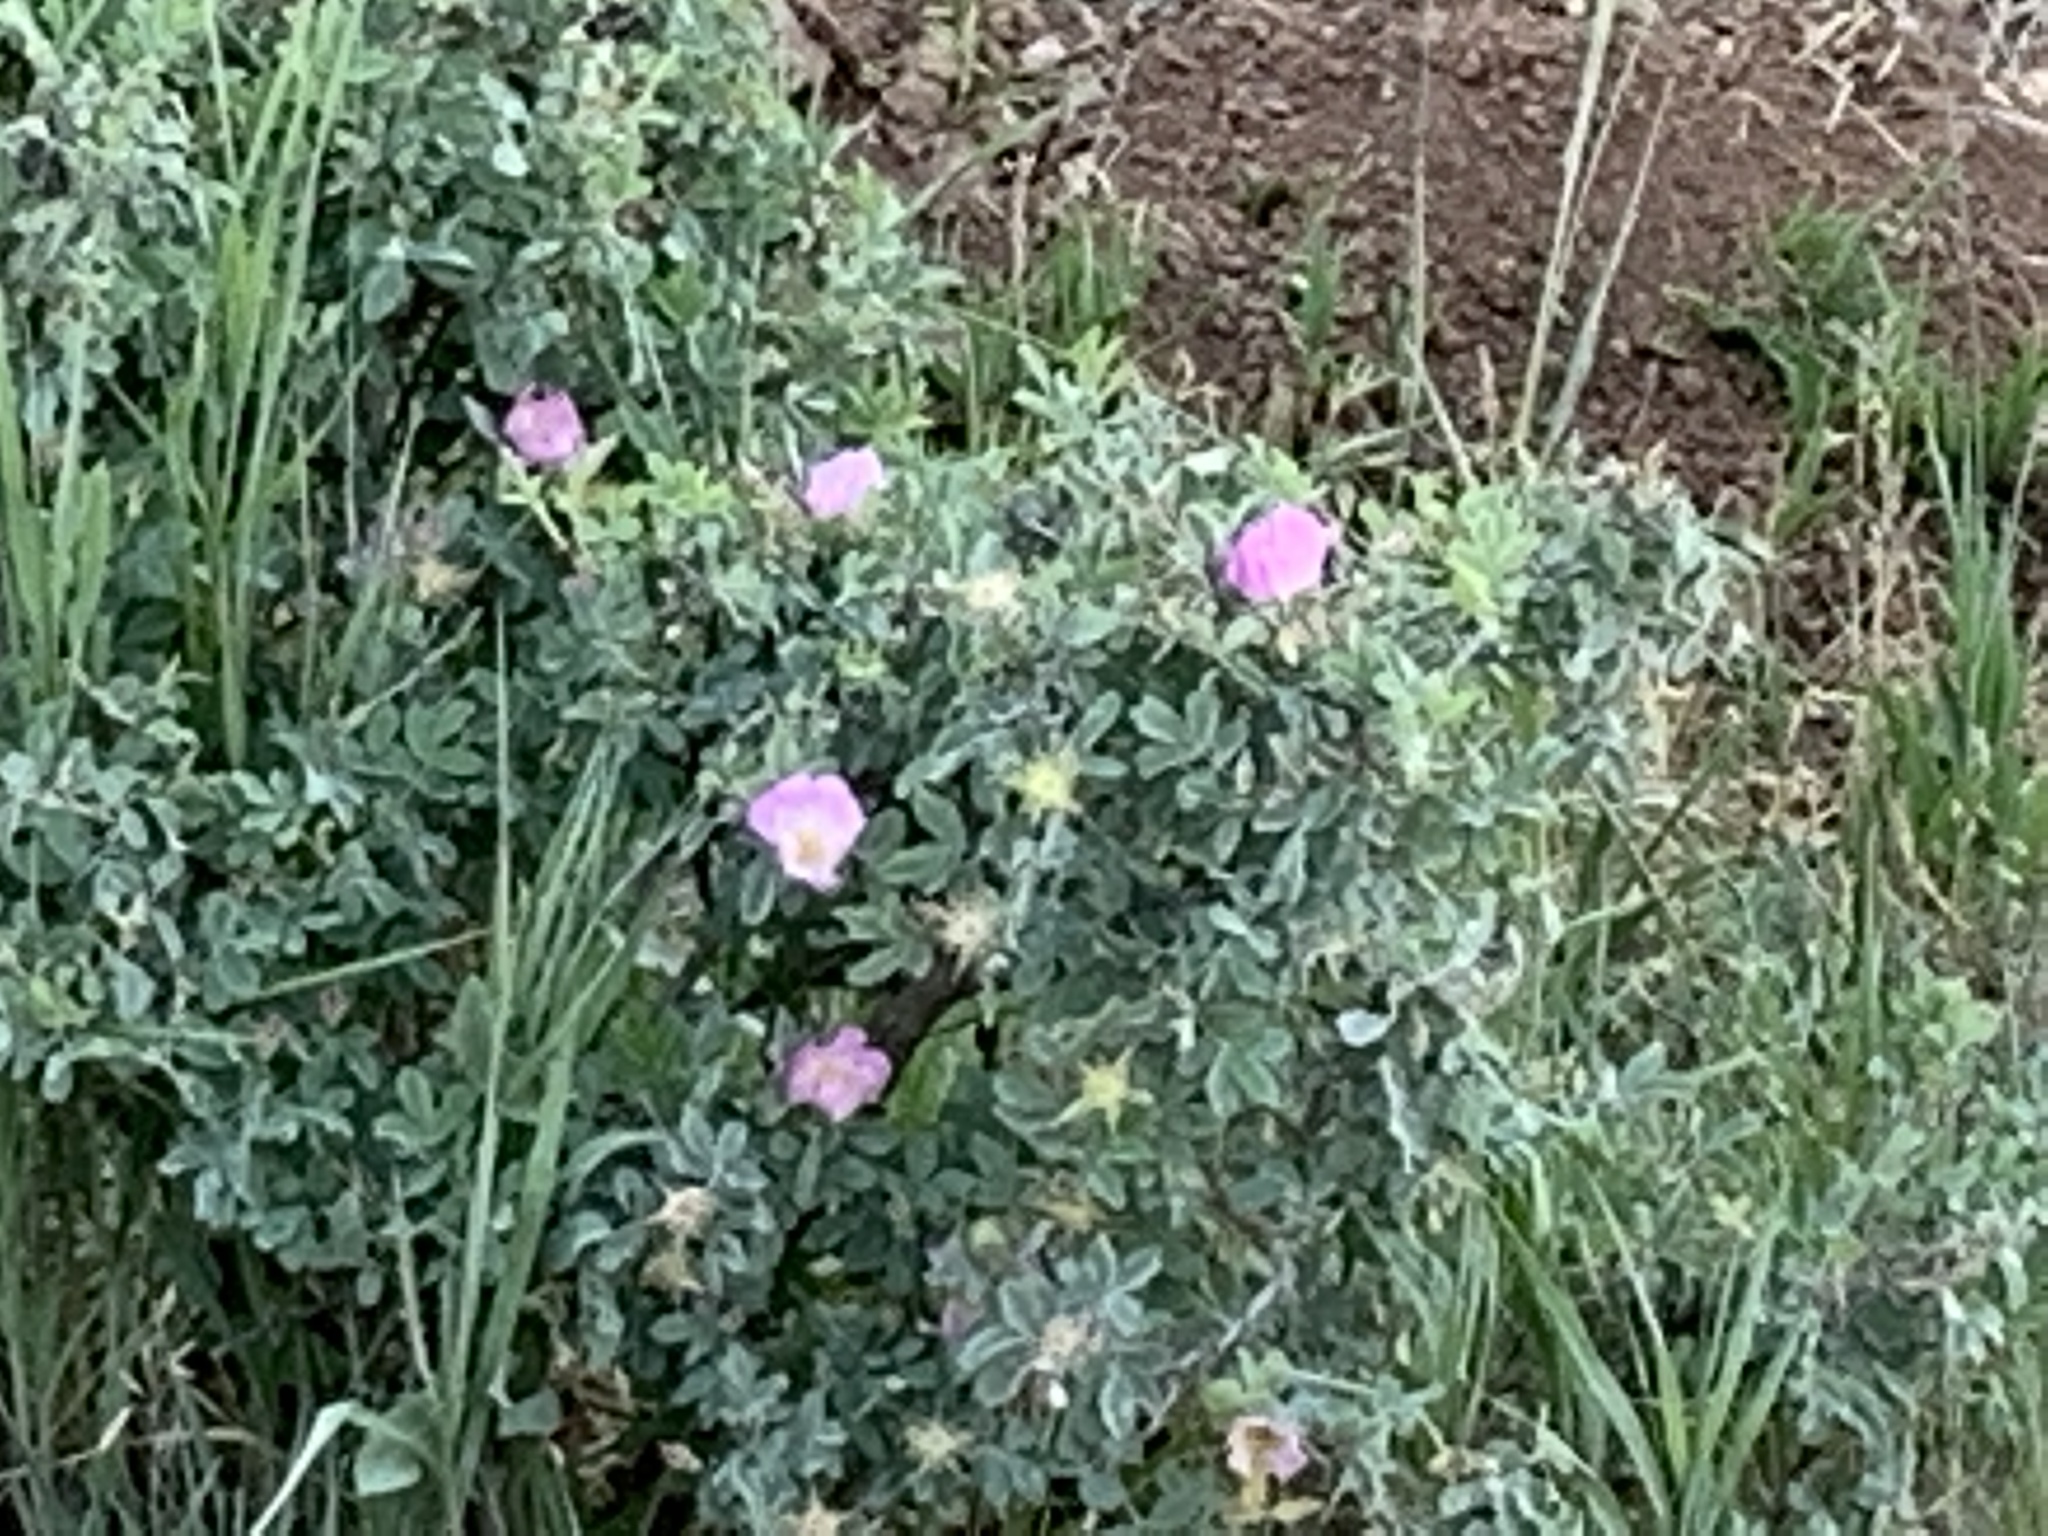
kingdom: Plantae
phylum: Tracheophyta
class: Magnoliopsida
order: Rosales
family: Rosaceae
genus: Rosa
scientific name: Rosa woodsii
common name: Woods's rose
